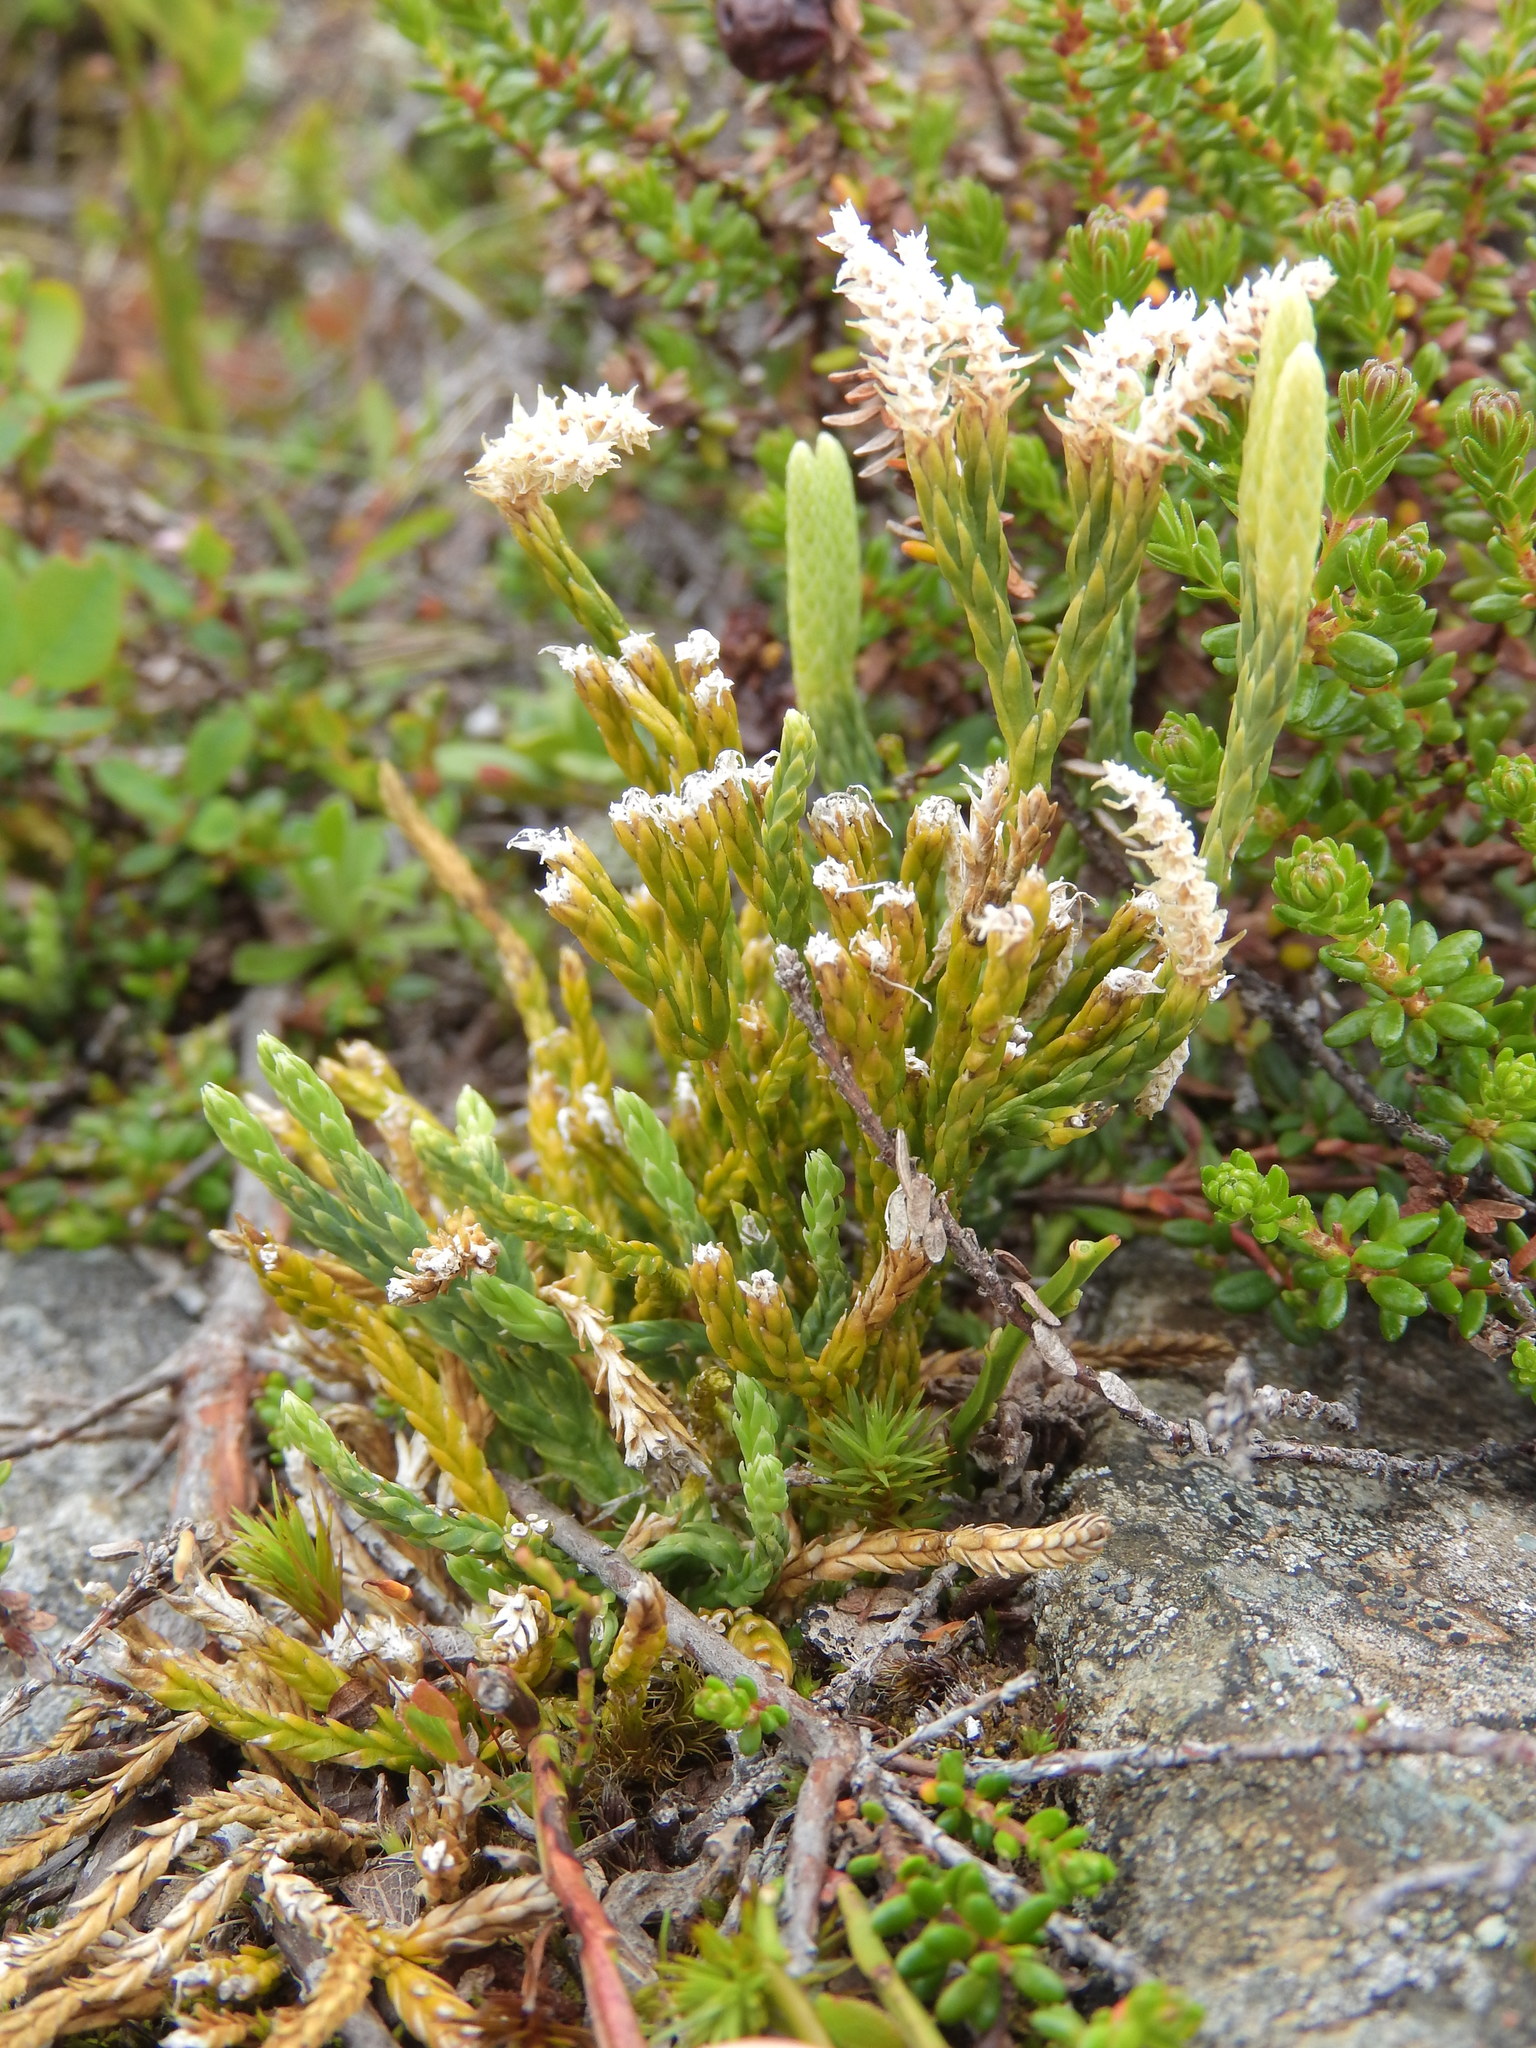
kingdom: Plantae
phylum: Tracheophyta
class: Lycopodiopsida
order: Lycopodiales
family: Lycopodiaceae
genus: Diphasiastrum
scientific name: Diphasiastrum alpinum
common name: Alpine clubmoss
